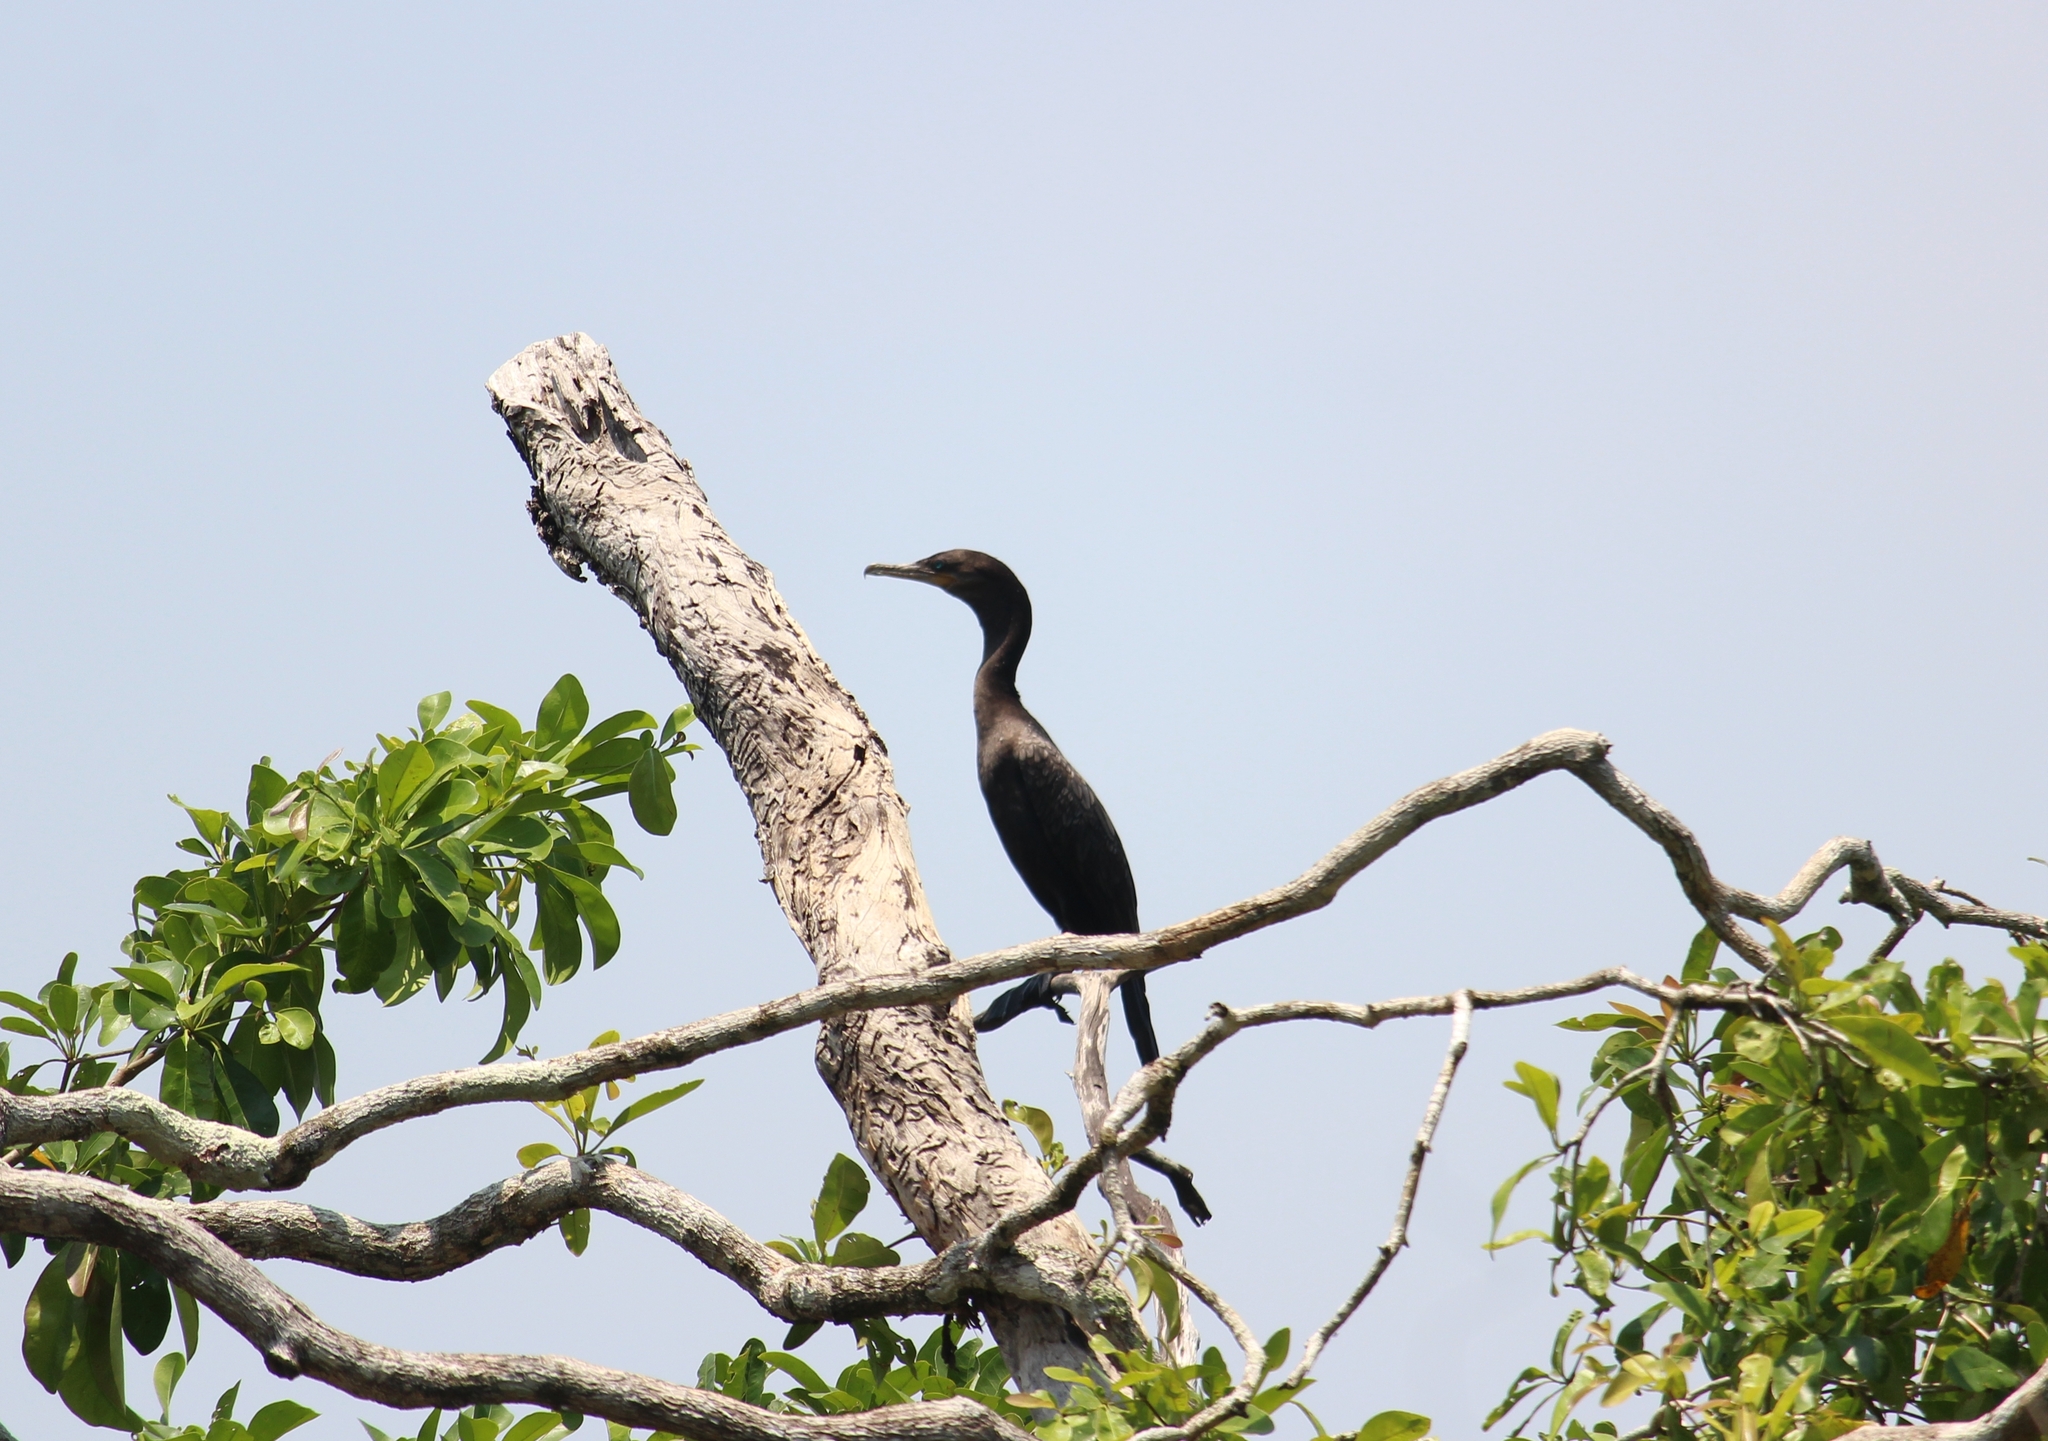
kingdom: Animalia
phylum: Chordata
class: Aves
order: Suliformes
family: Phalacrocoracidae
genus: Phalacrocorax
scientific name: Phalacrocorax brasilianus
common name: Neotropic cormorant
